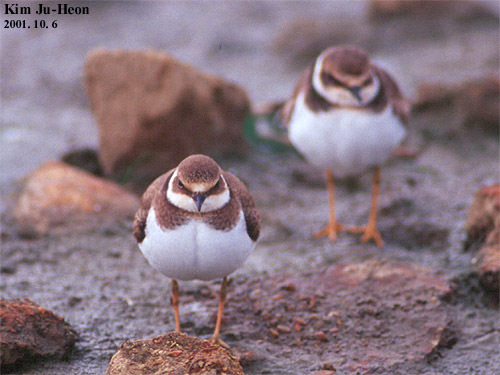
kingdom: Animalia
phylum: Chordata
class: Aves
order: Charadriiformes
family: Charadriidae
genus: Charadrius
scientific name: Charadrius dubius
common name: Little ringed plover
